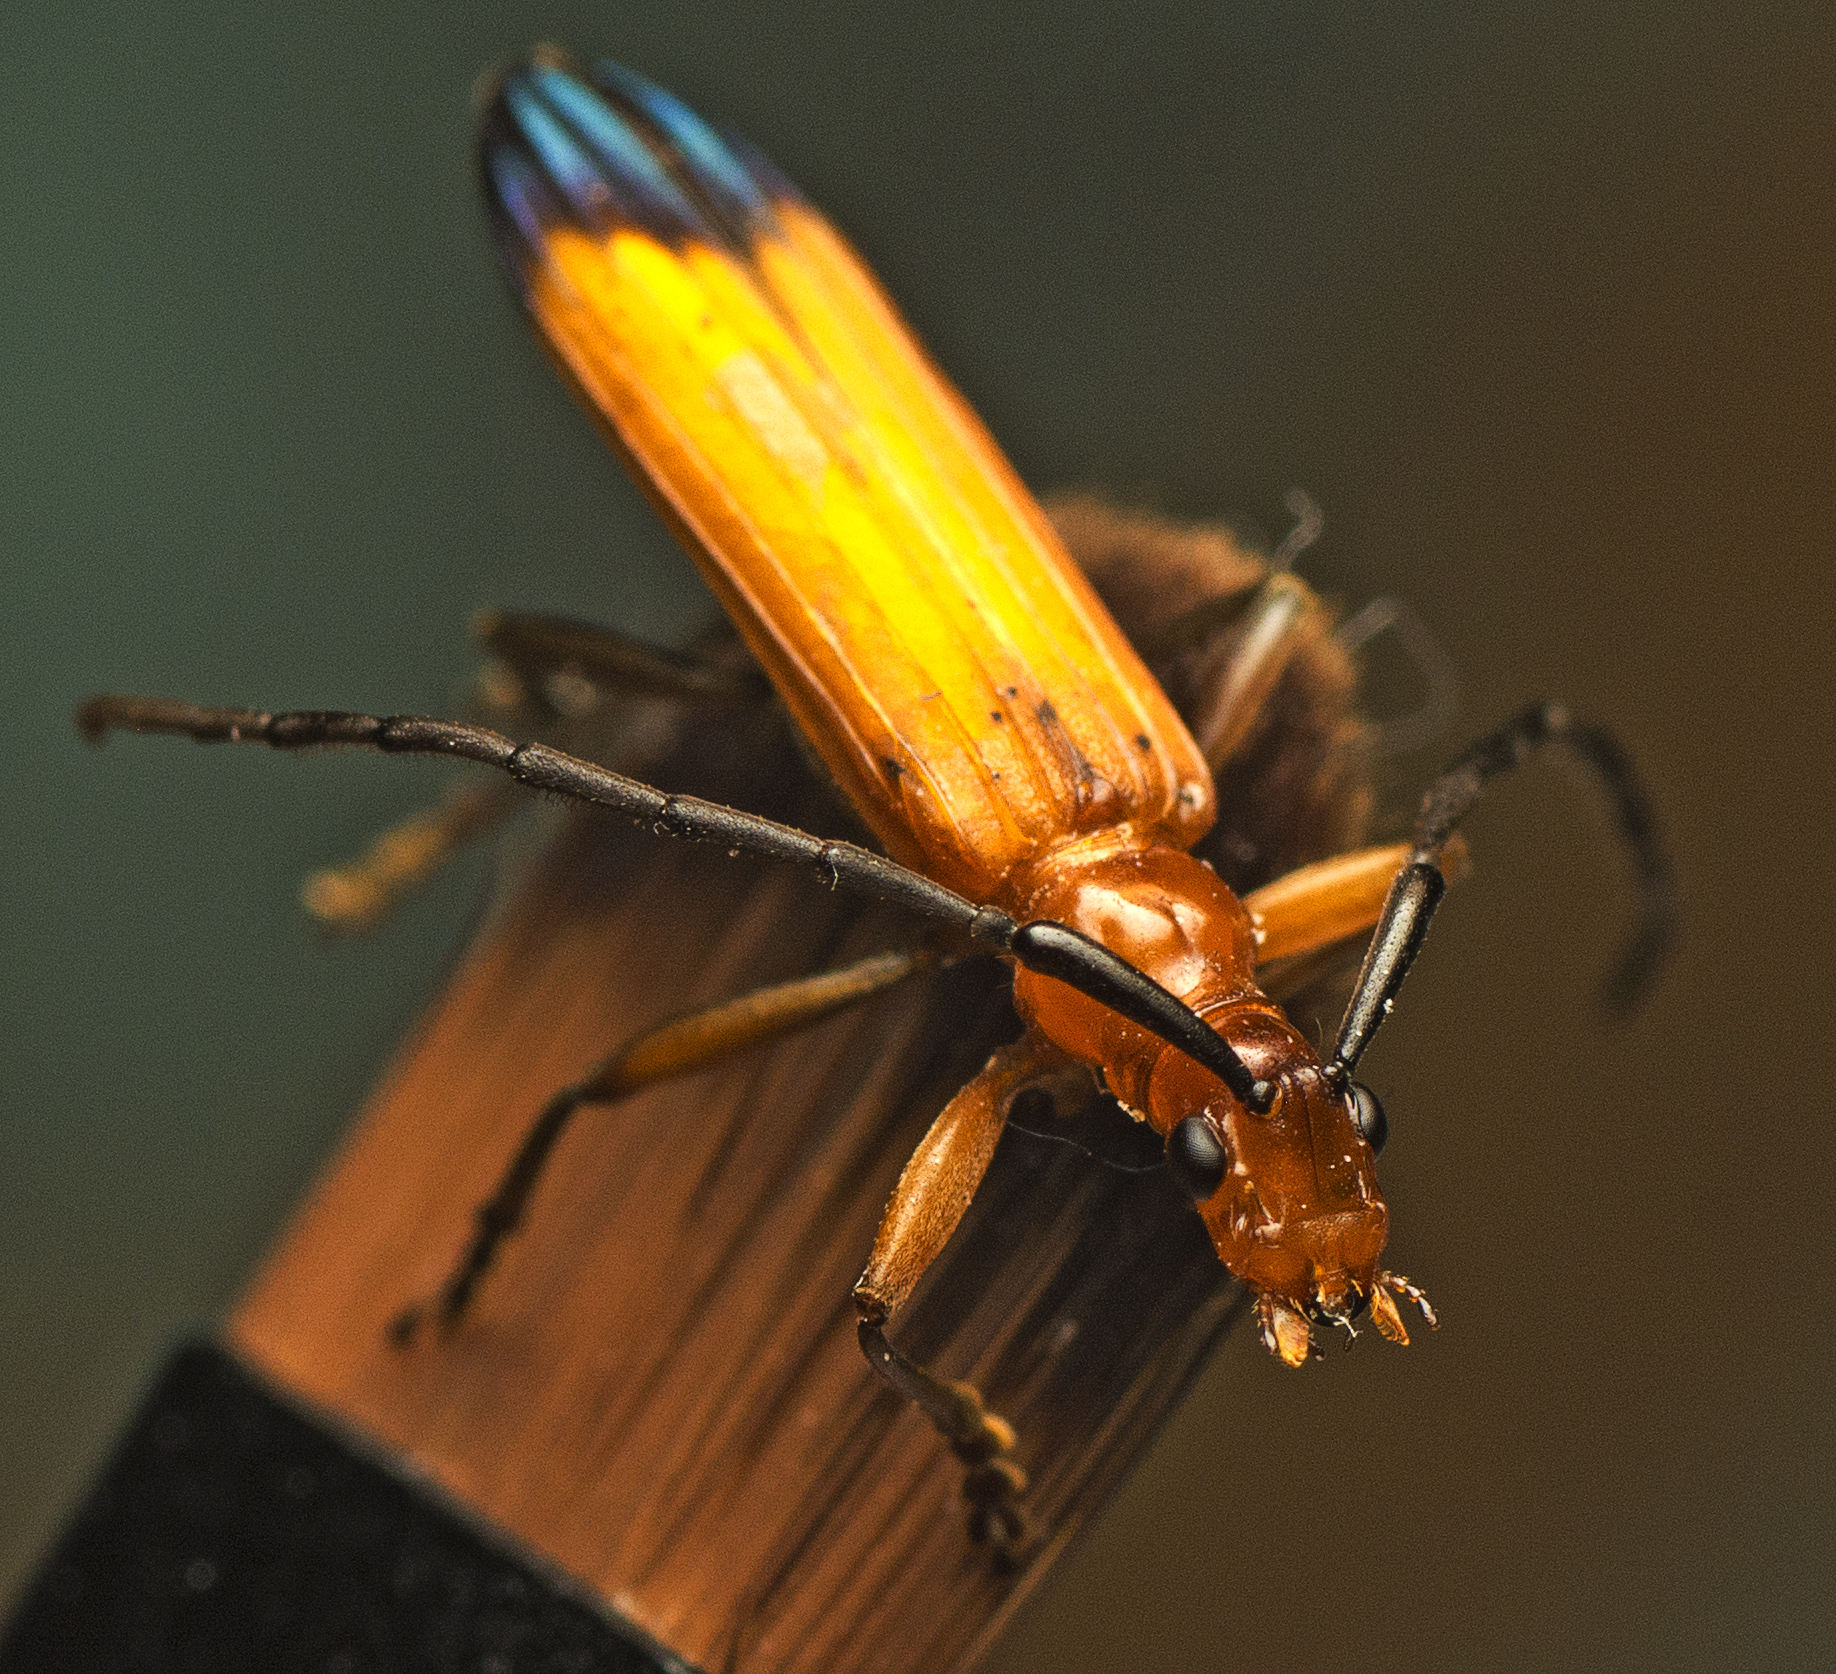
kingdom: Animalia
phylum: Arthropoda
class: Insecta
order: Coleoptera
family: Cerambycidae
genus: Stenoderus
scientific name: Stenoderus ostricilla
